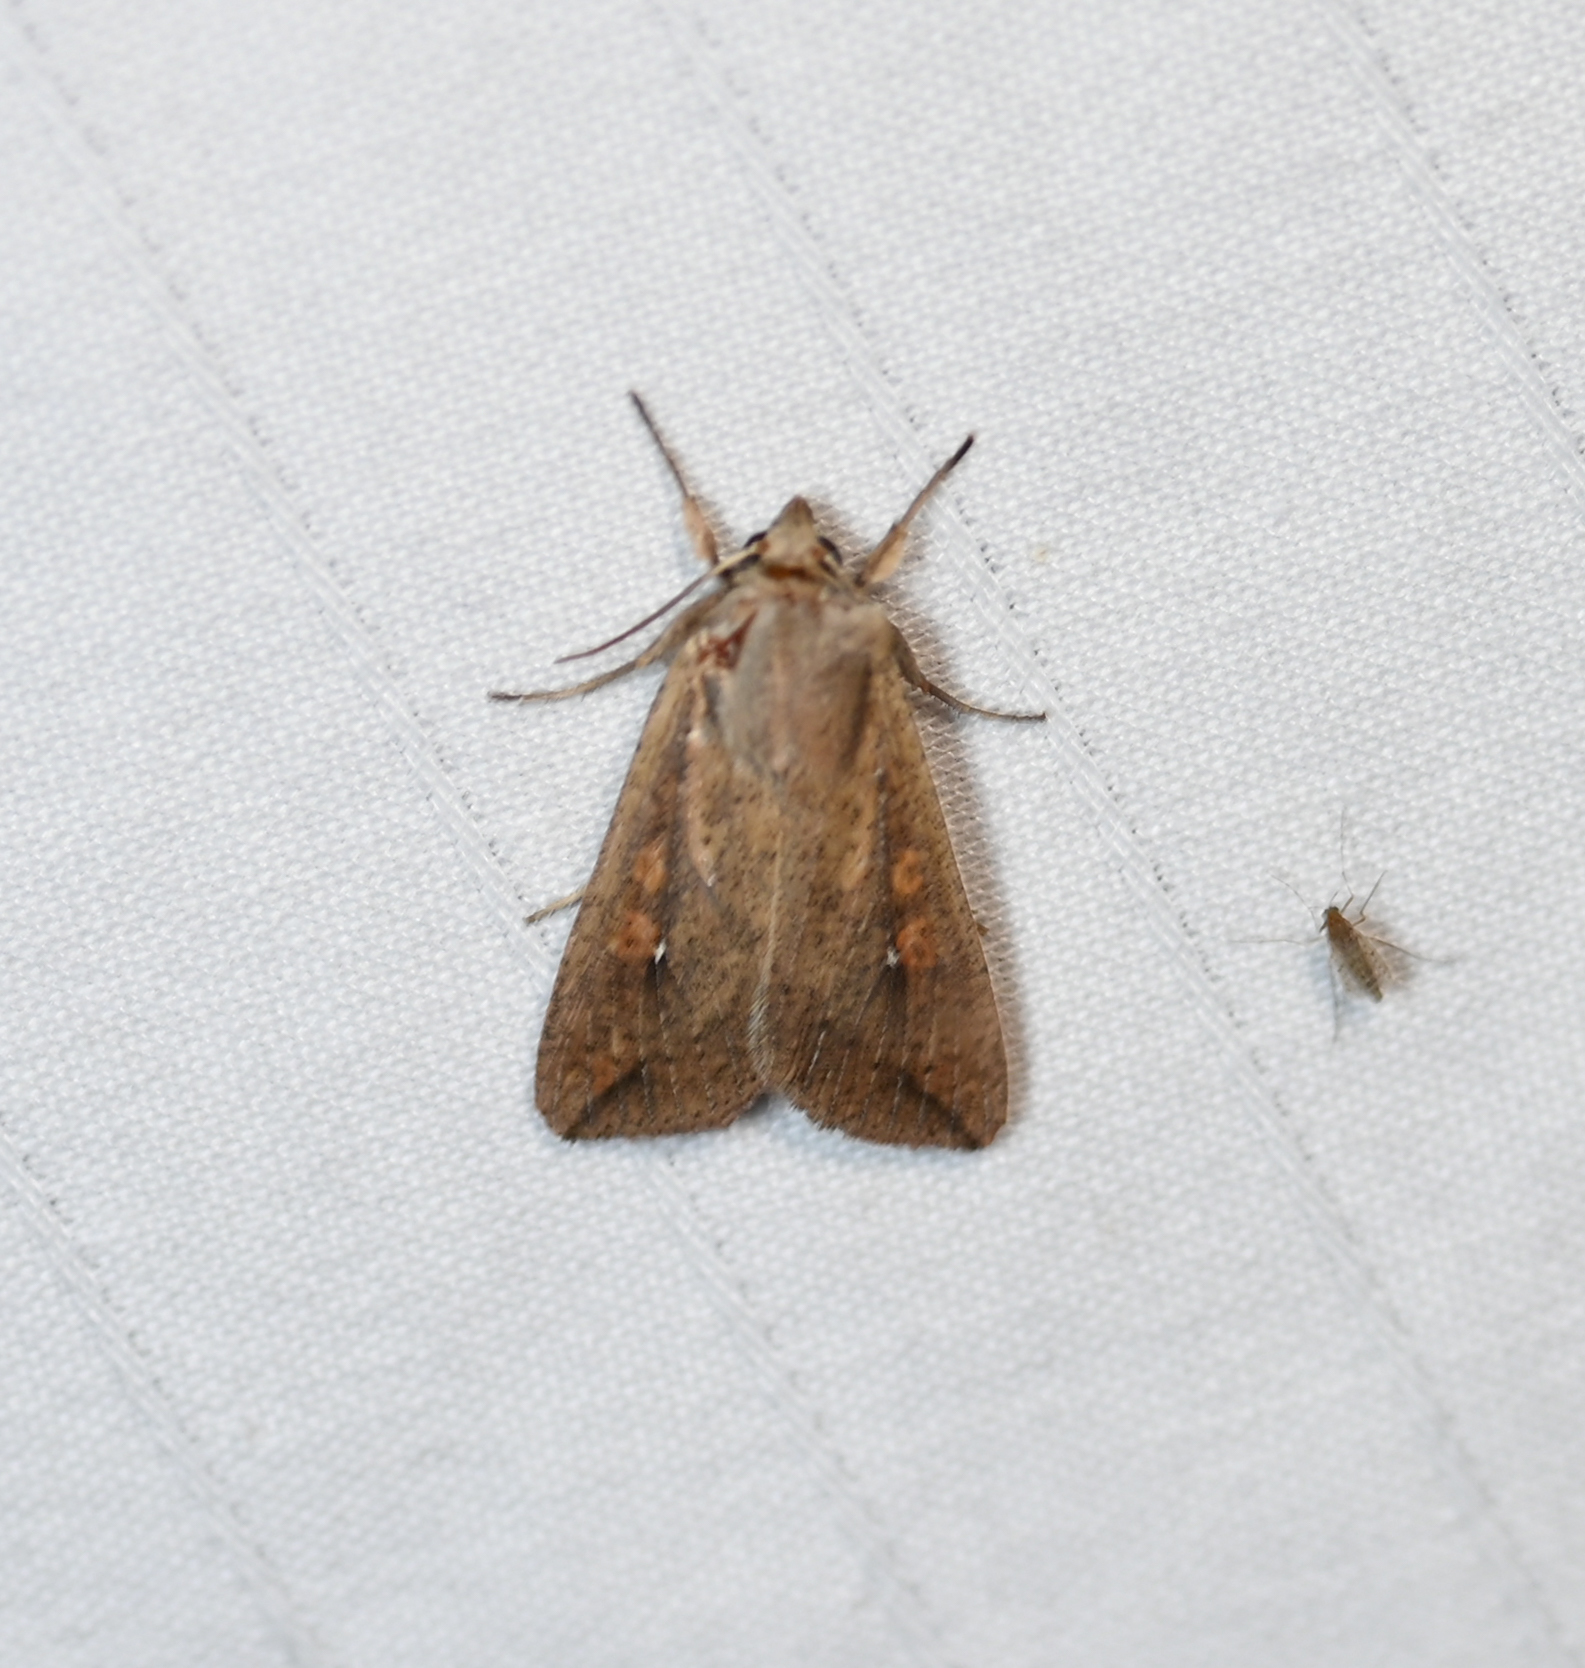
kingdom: Animalia
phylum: Arthropoda
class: Insecta
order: Lepidoptera
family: Noctuidae
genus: Mythimna
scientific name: Mythimna unipuncta
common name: White-speck
